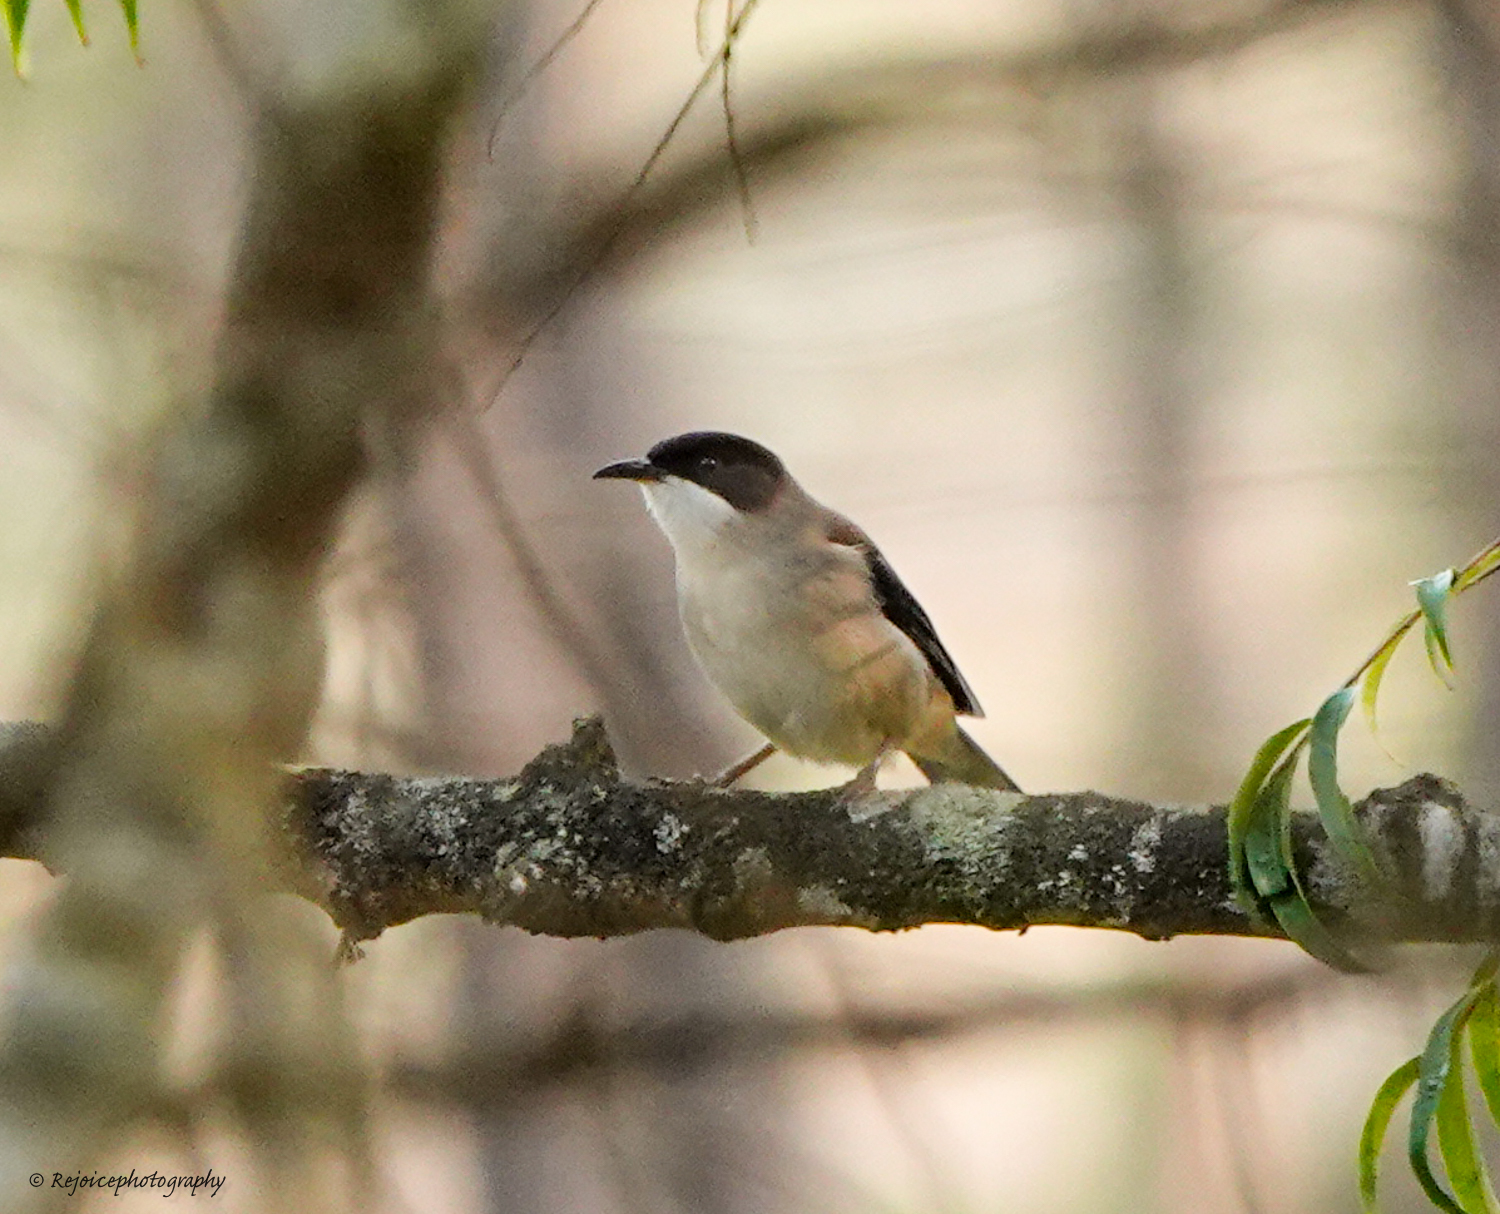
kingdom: Animalia
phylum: Chordata
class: Aves
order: Passeriformes
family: Leiothrichidae
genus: Heterophasia
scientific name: Heterophasia gracilis
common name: Grey sibia
